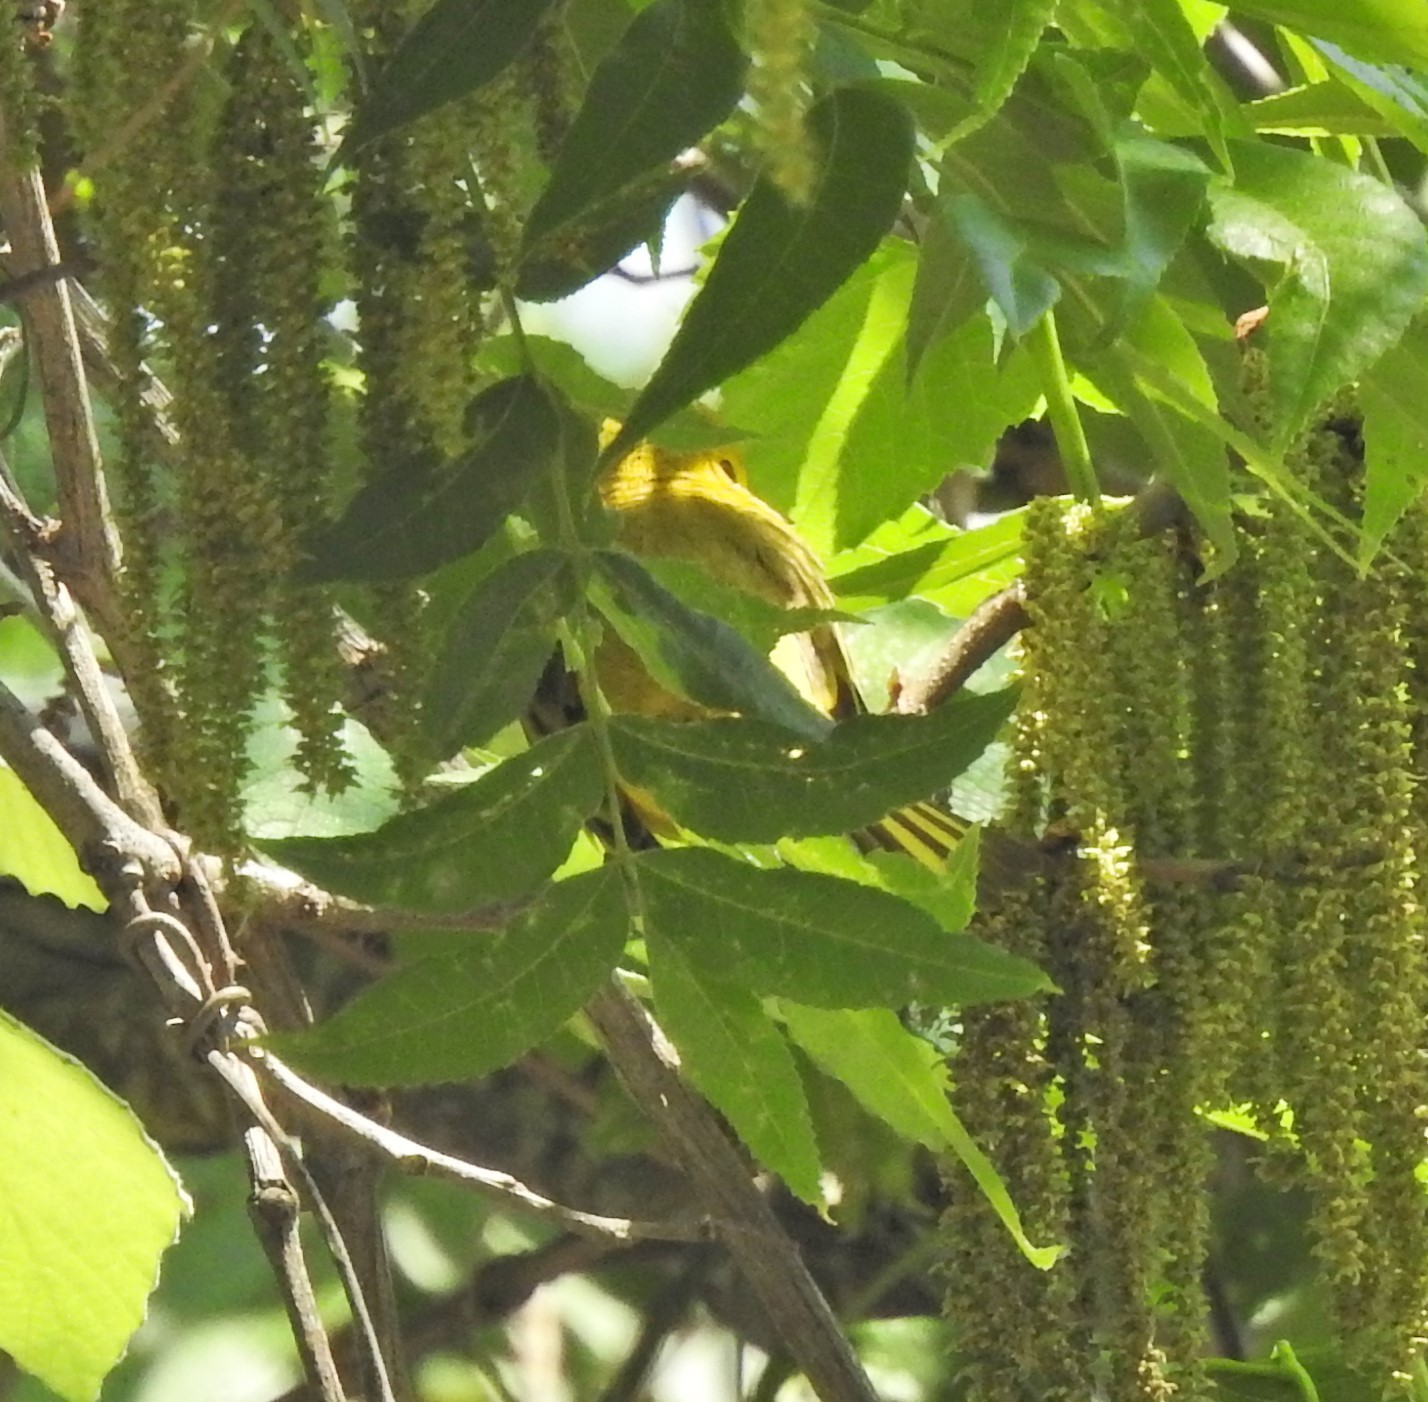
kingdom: Animalia
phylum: Chordata
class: Aves
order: Passeriformes
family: Parulidae
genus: Setophaga
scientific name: Setophaga petechia
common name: Yellow warbler
